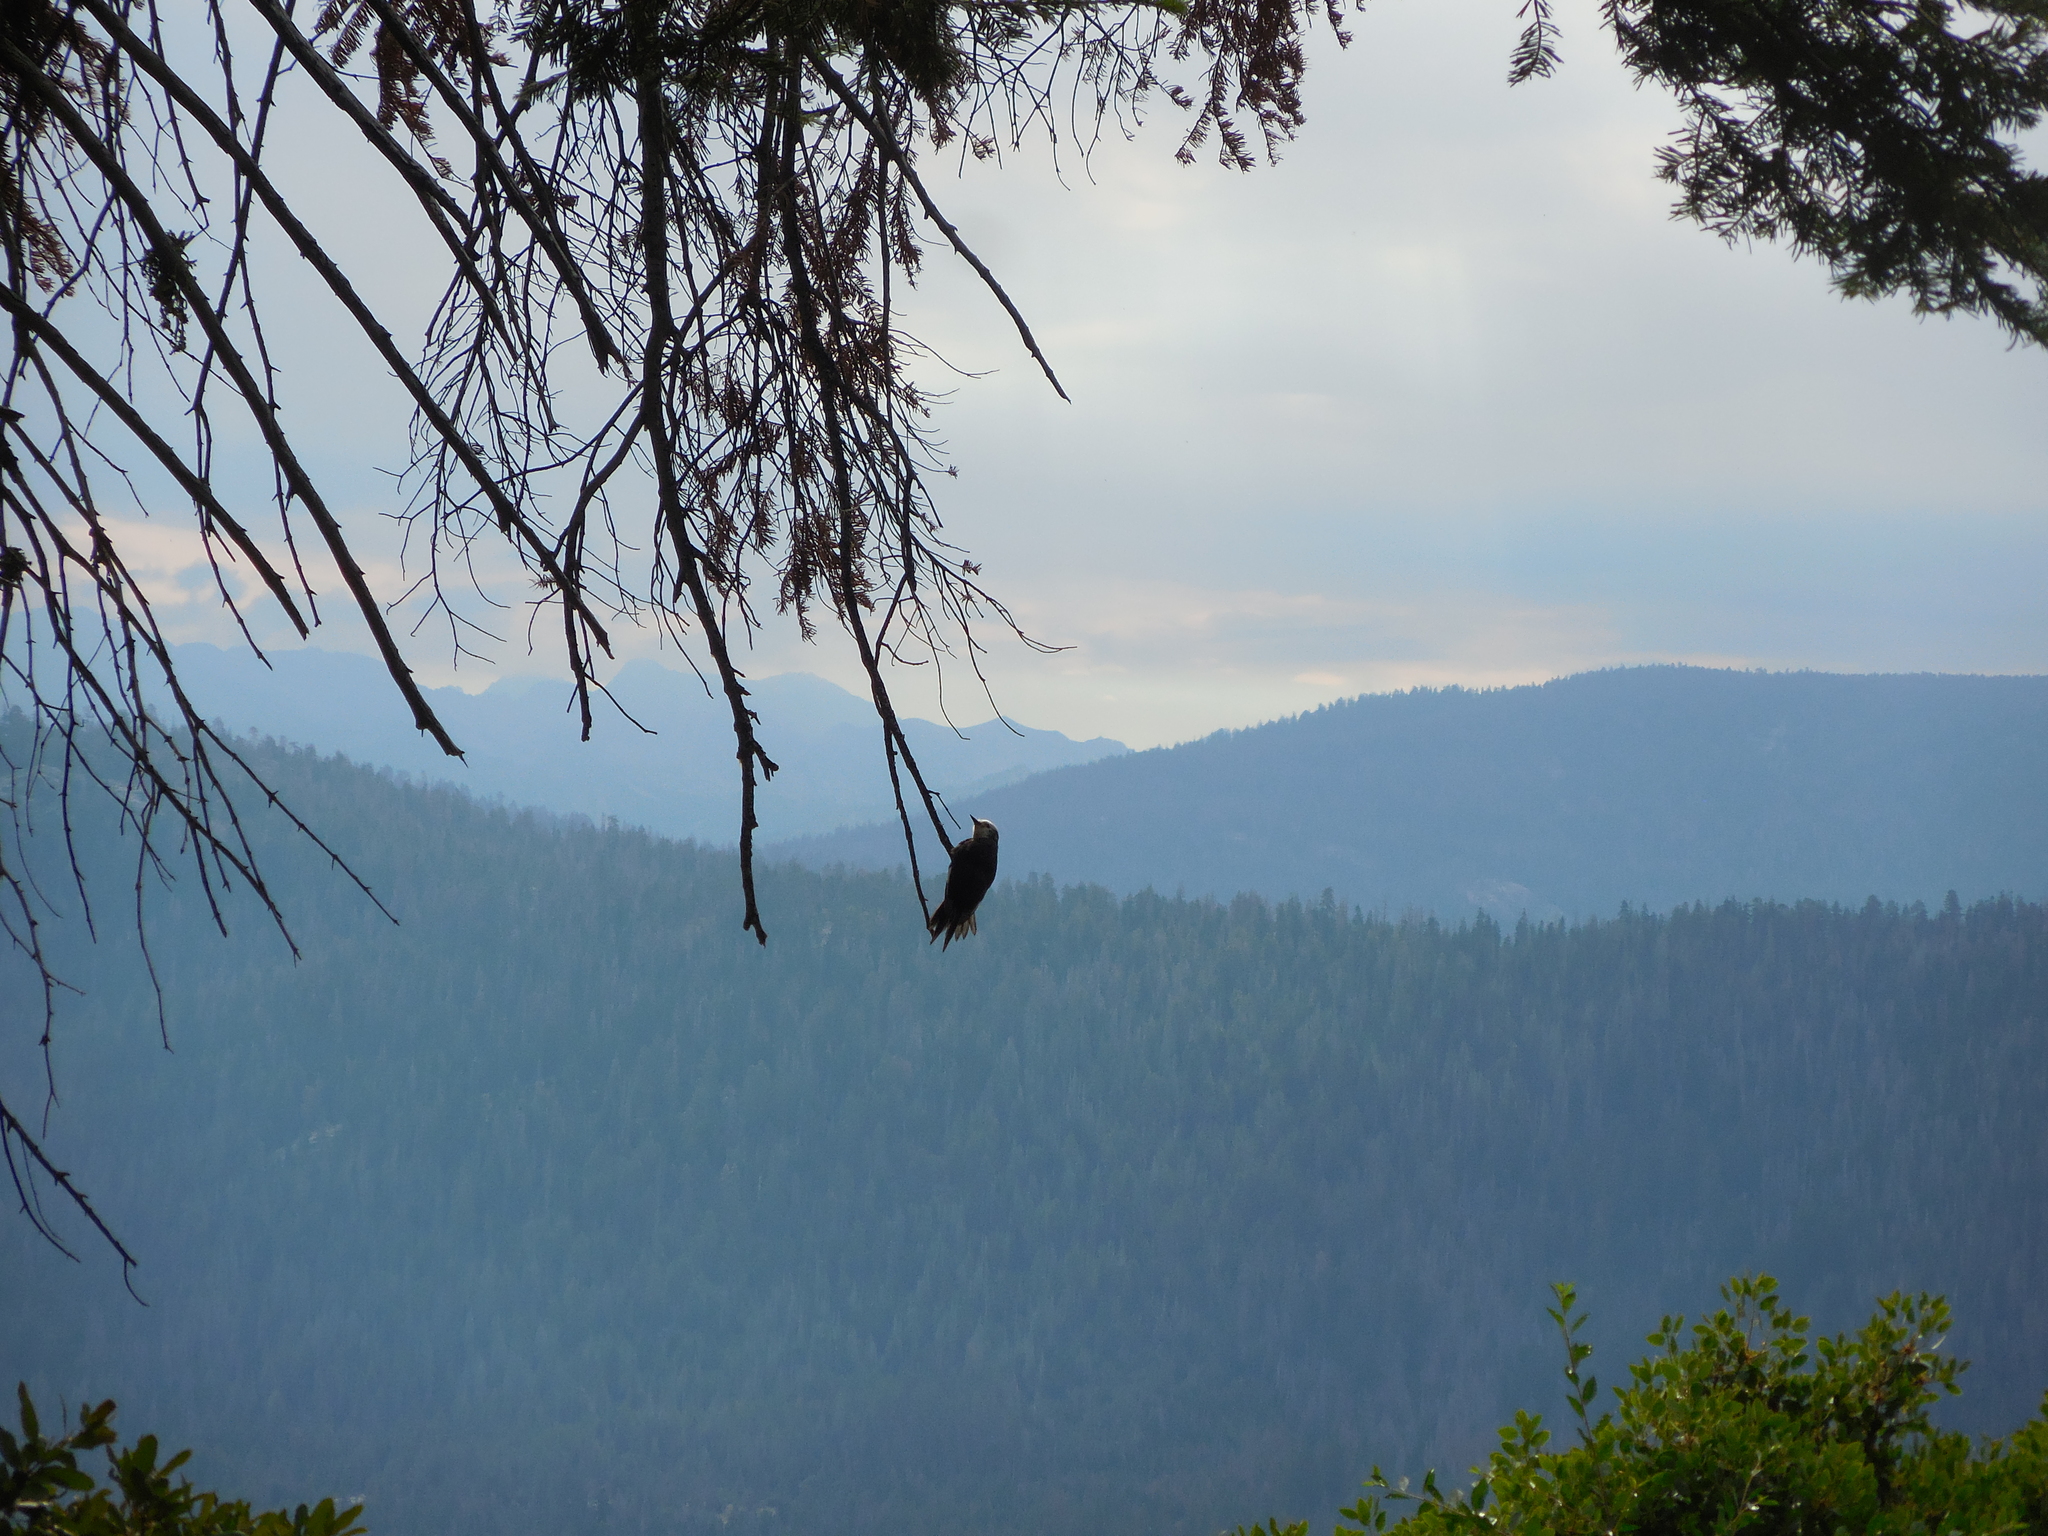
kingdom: Animalia
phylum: Chordata
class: Aves
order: Piciformes
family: Picidae
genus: Leuconotopicus
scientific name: Leuconotopicus albolarvatus
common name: White-headed woodpecker
